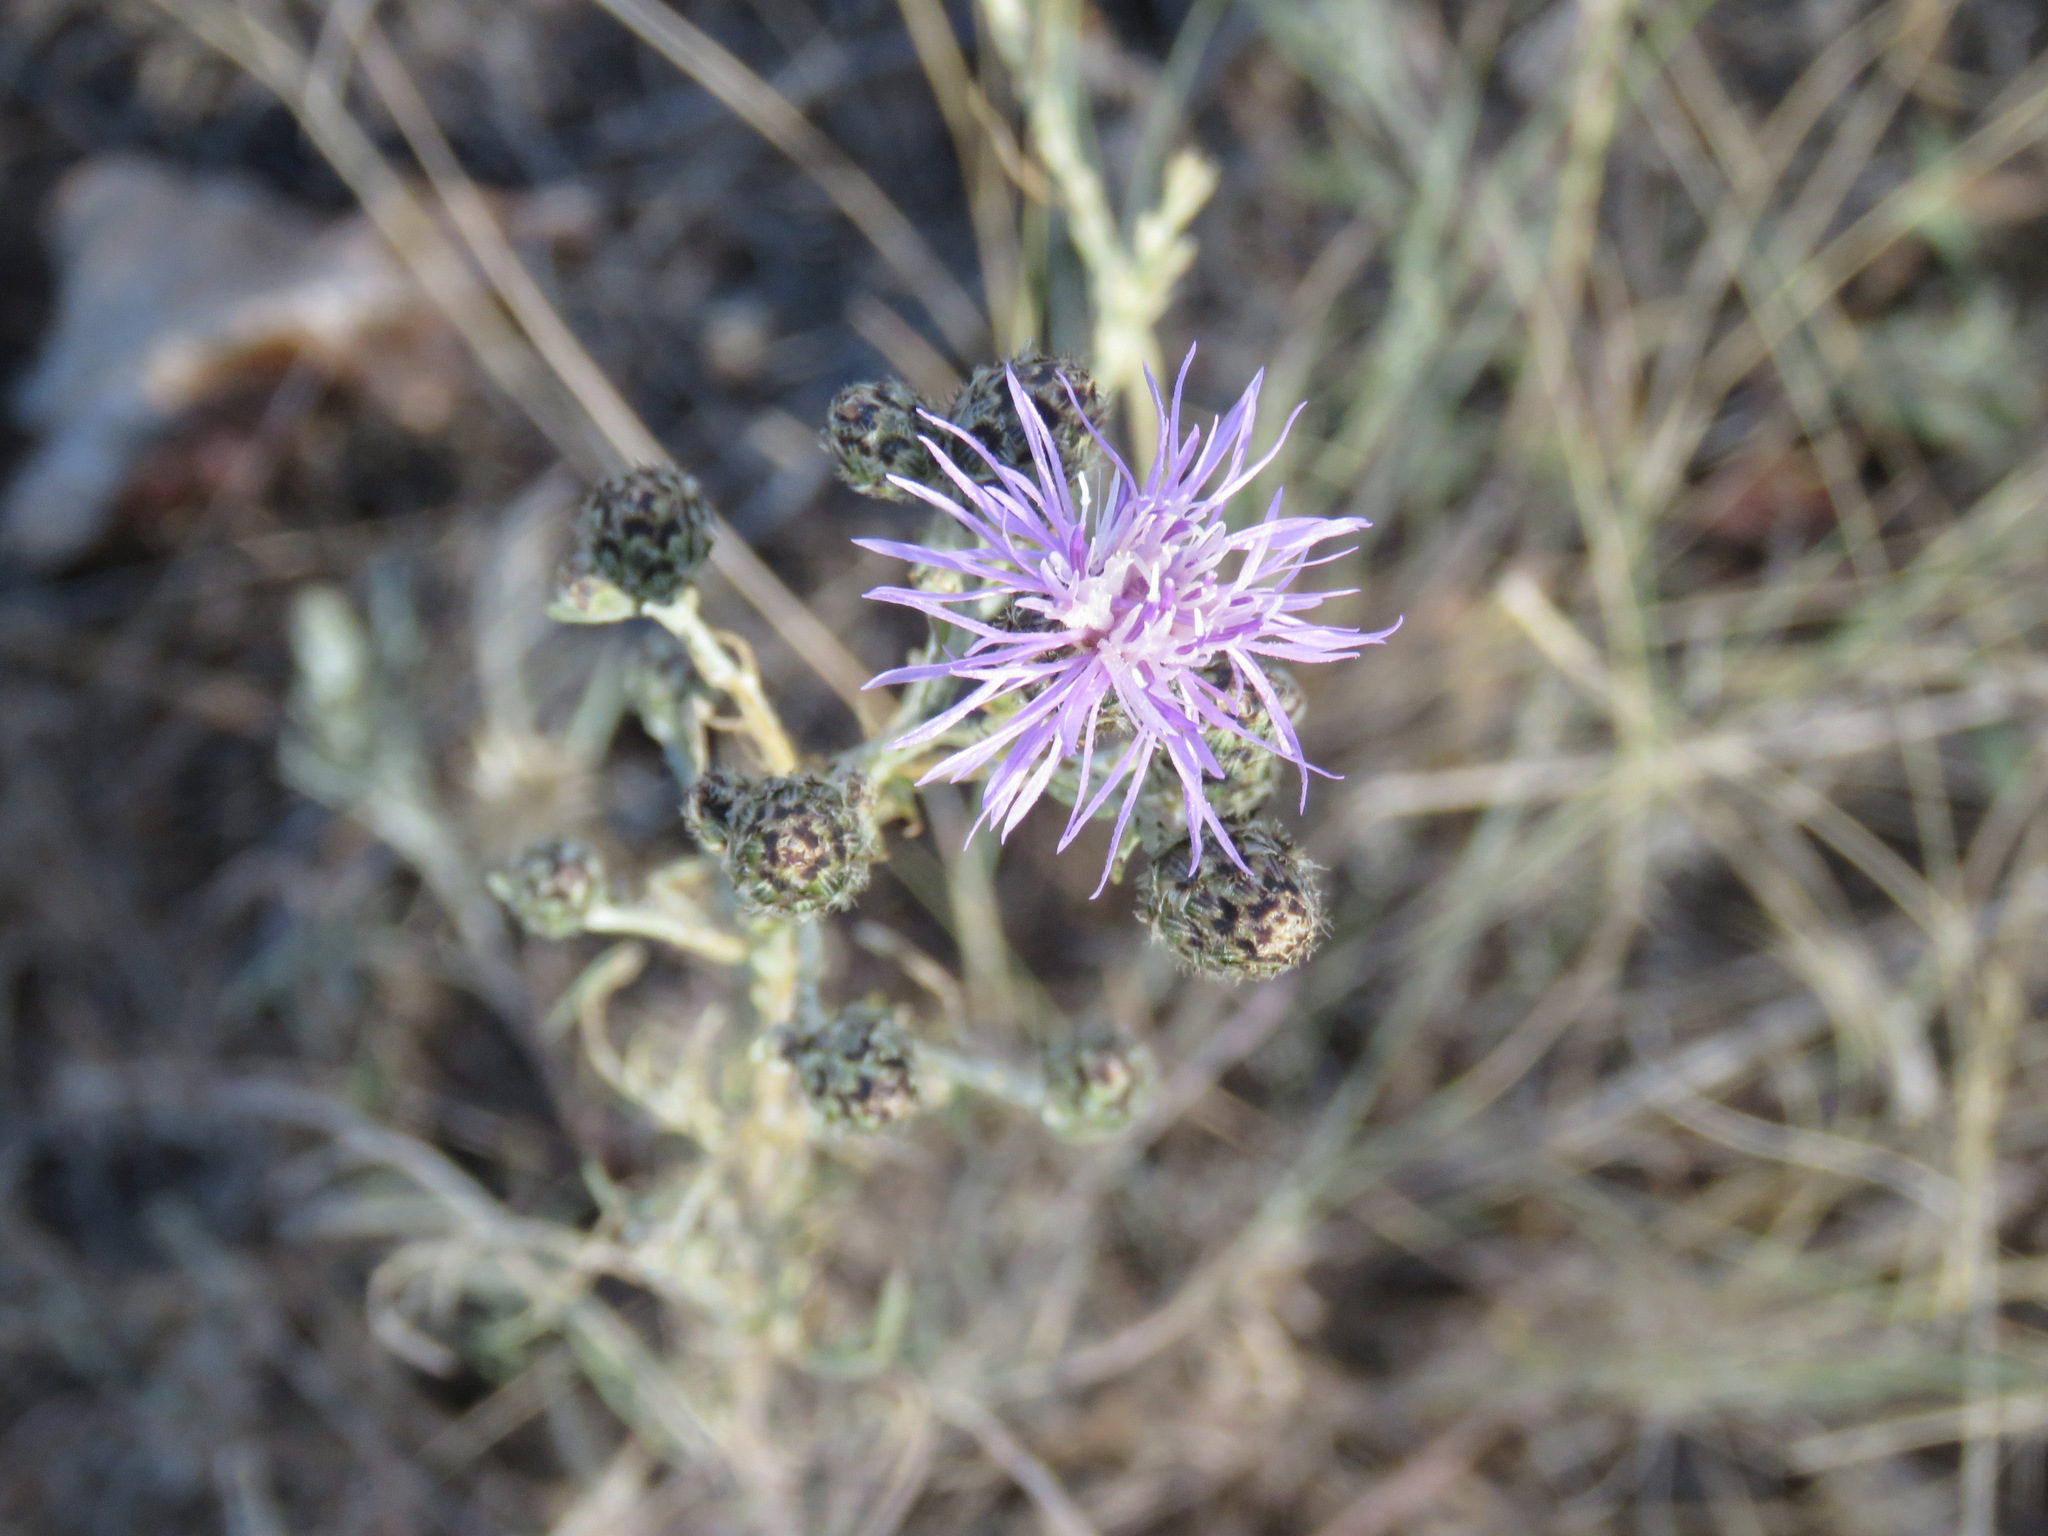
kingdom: Plantae
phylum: Tracheophyta
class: Magnoliopsida
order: Asterales
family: Asteraceae
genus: Centaurea
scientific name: Centaurea stoebe
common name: Spotted knapweed
